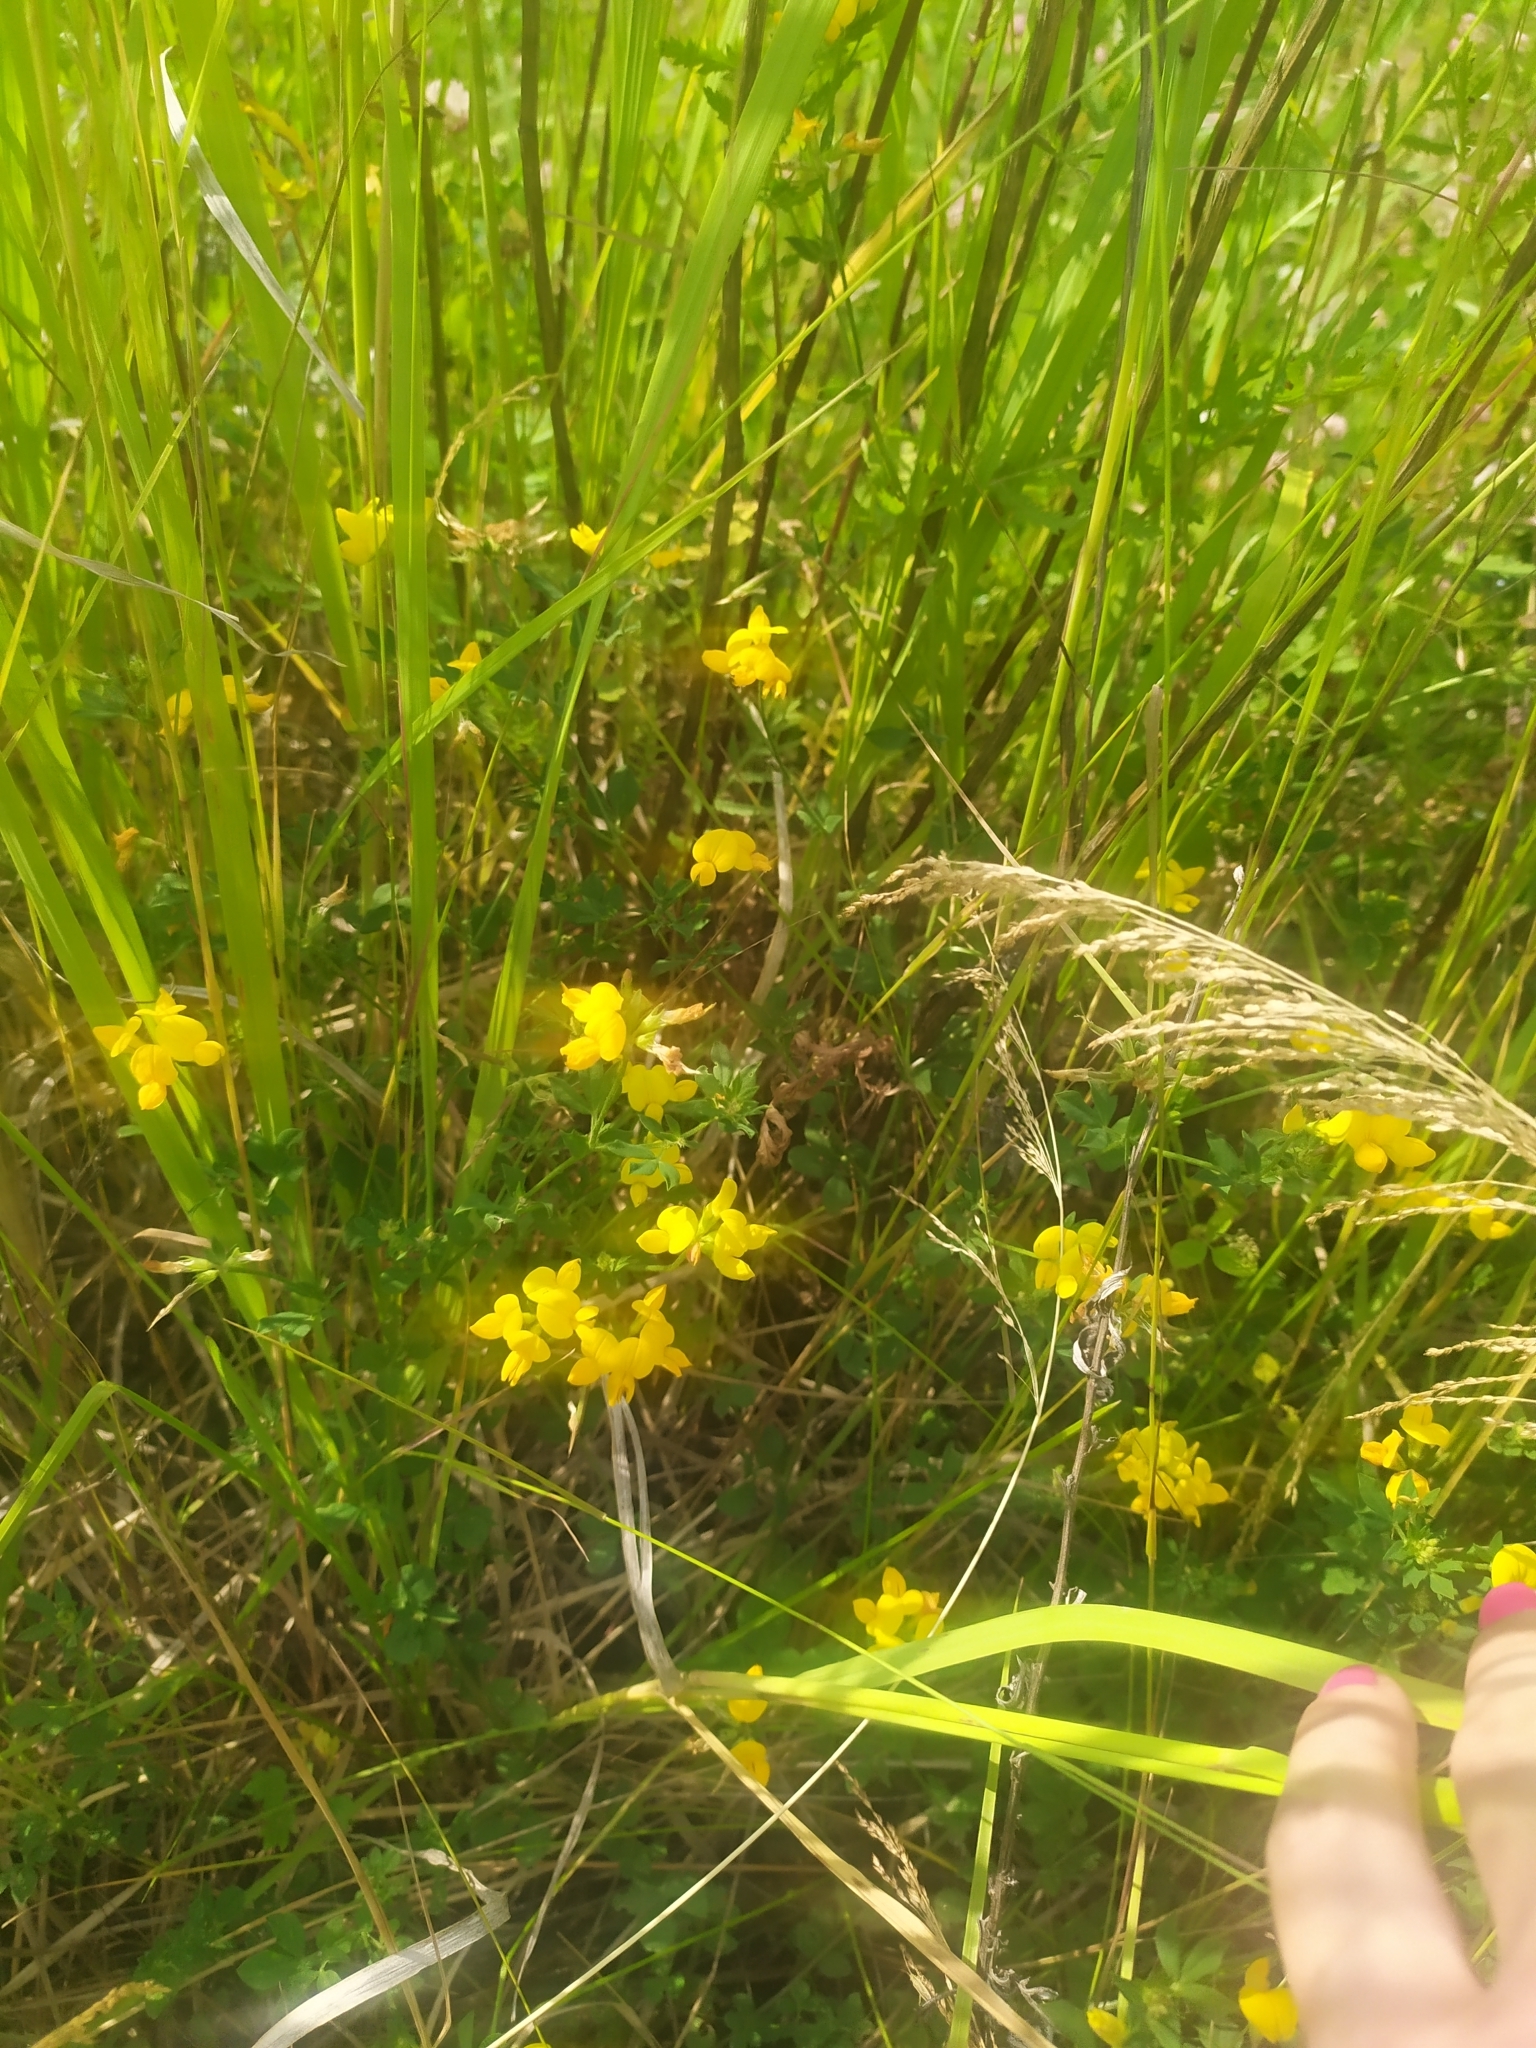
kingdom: Plantae
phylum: Tracheophyta
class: Magnoliopsida
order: Fabales
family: Fabaceae
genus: Lotus
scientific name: Lotus corniculatus
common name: Common bird's-foot-trefoil
